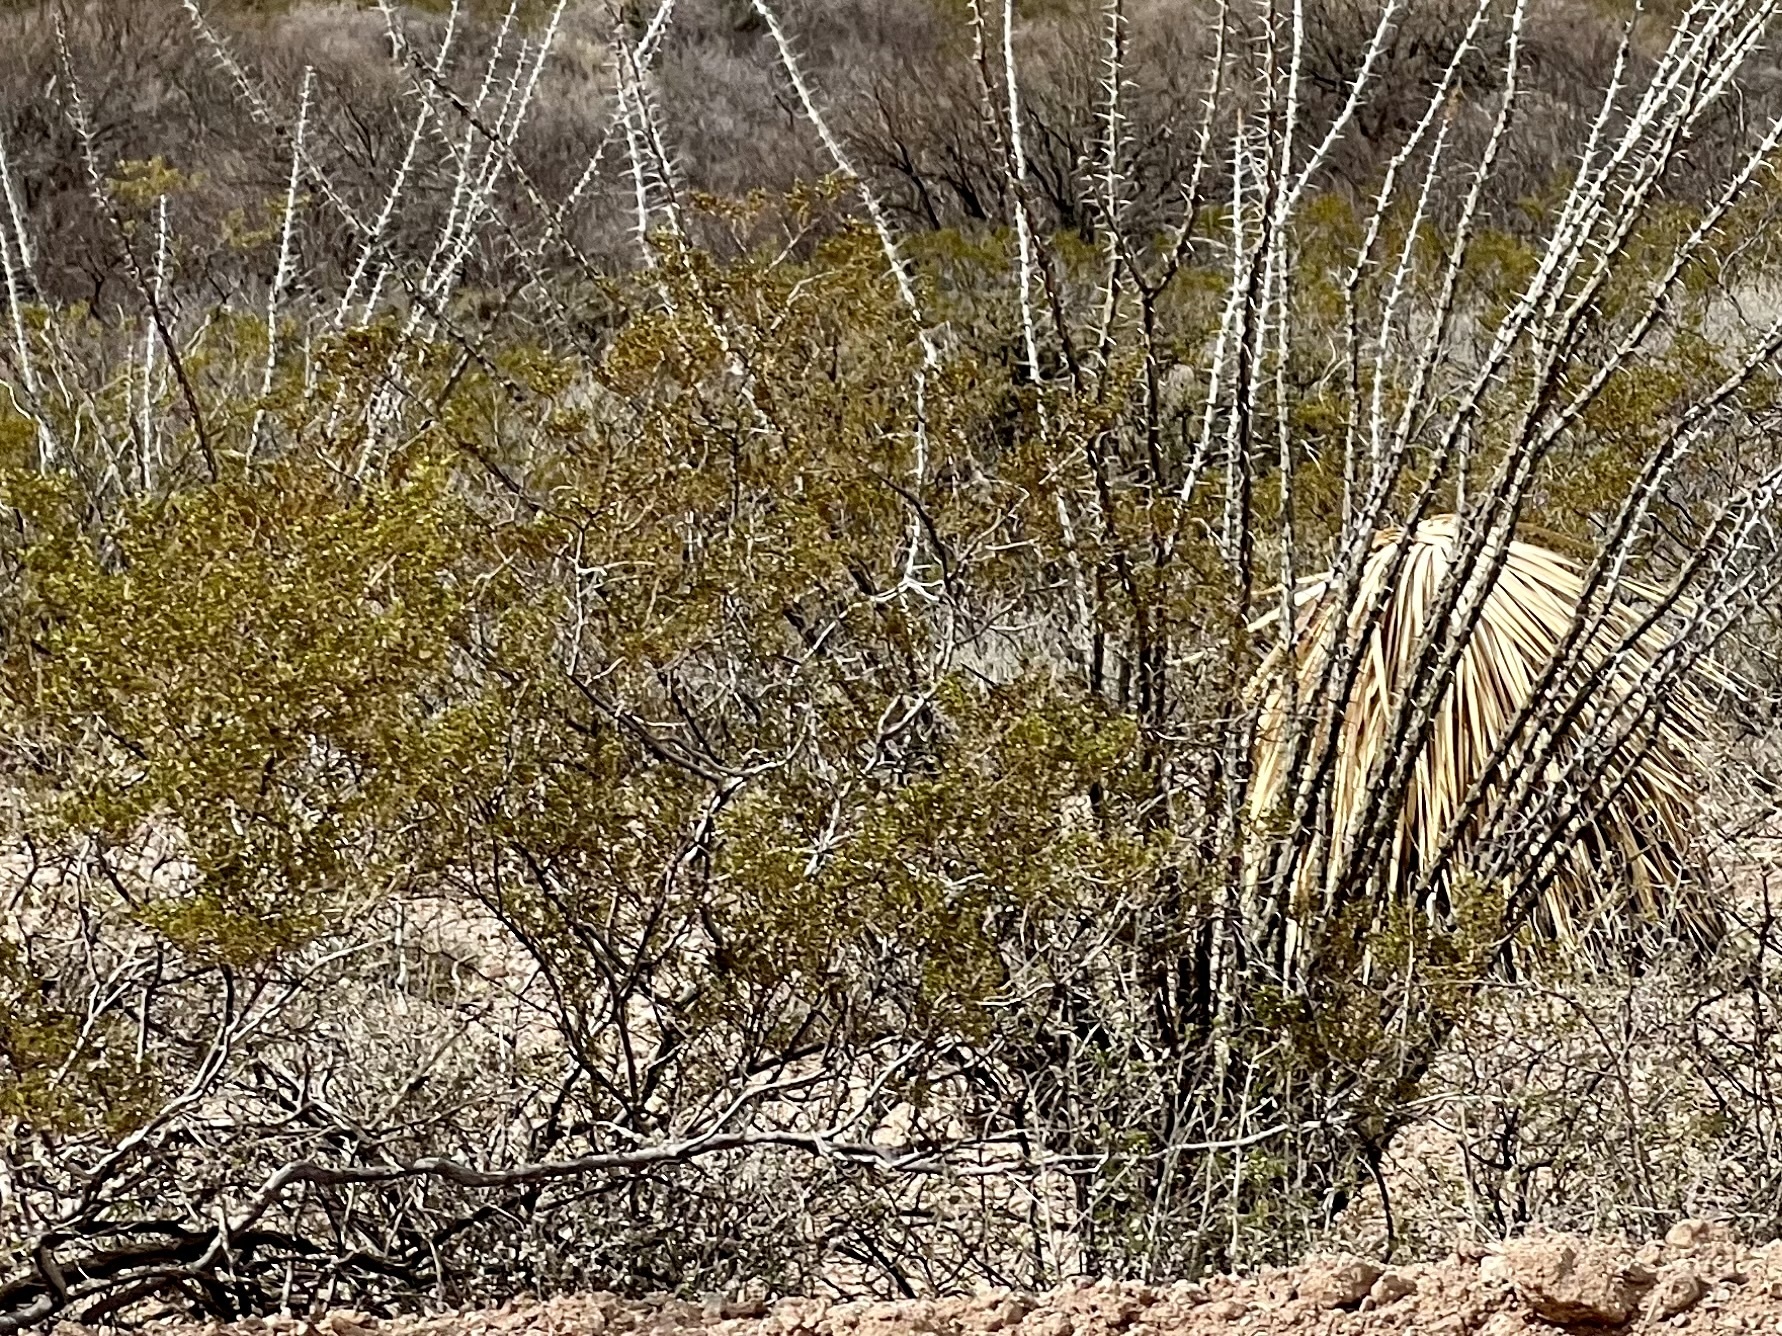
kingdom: Plantae
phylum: Tracheophyta
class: Magnoliopsida
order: Zygophyllales
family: Zygophyllaceae
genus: Larrea
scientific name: Larrea tridentata
